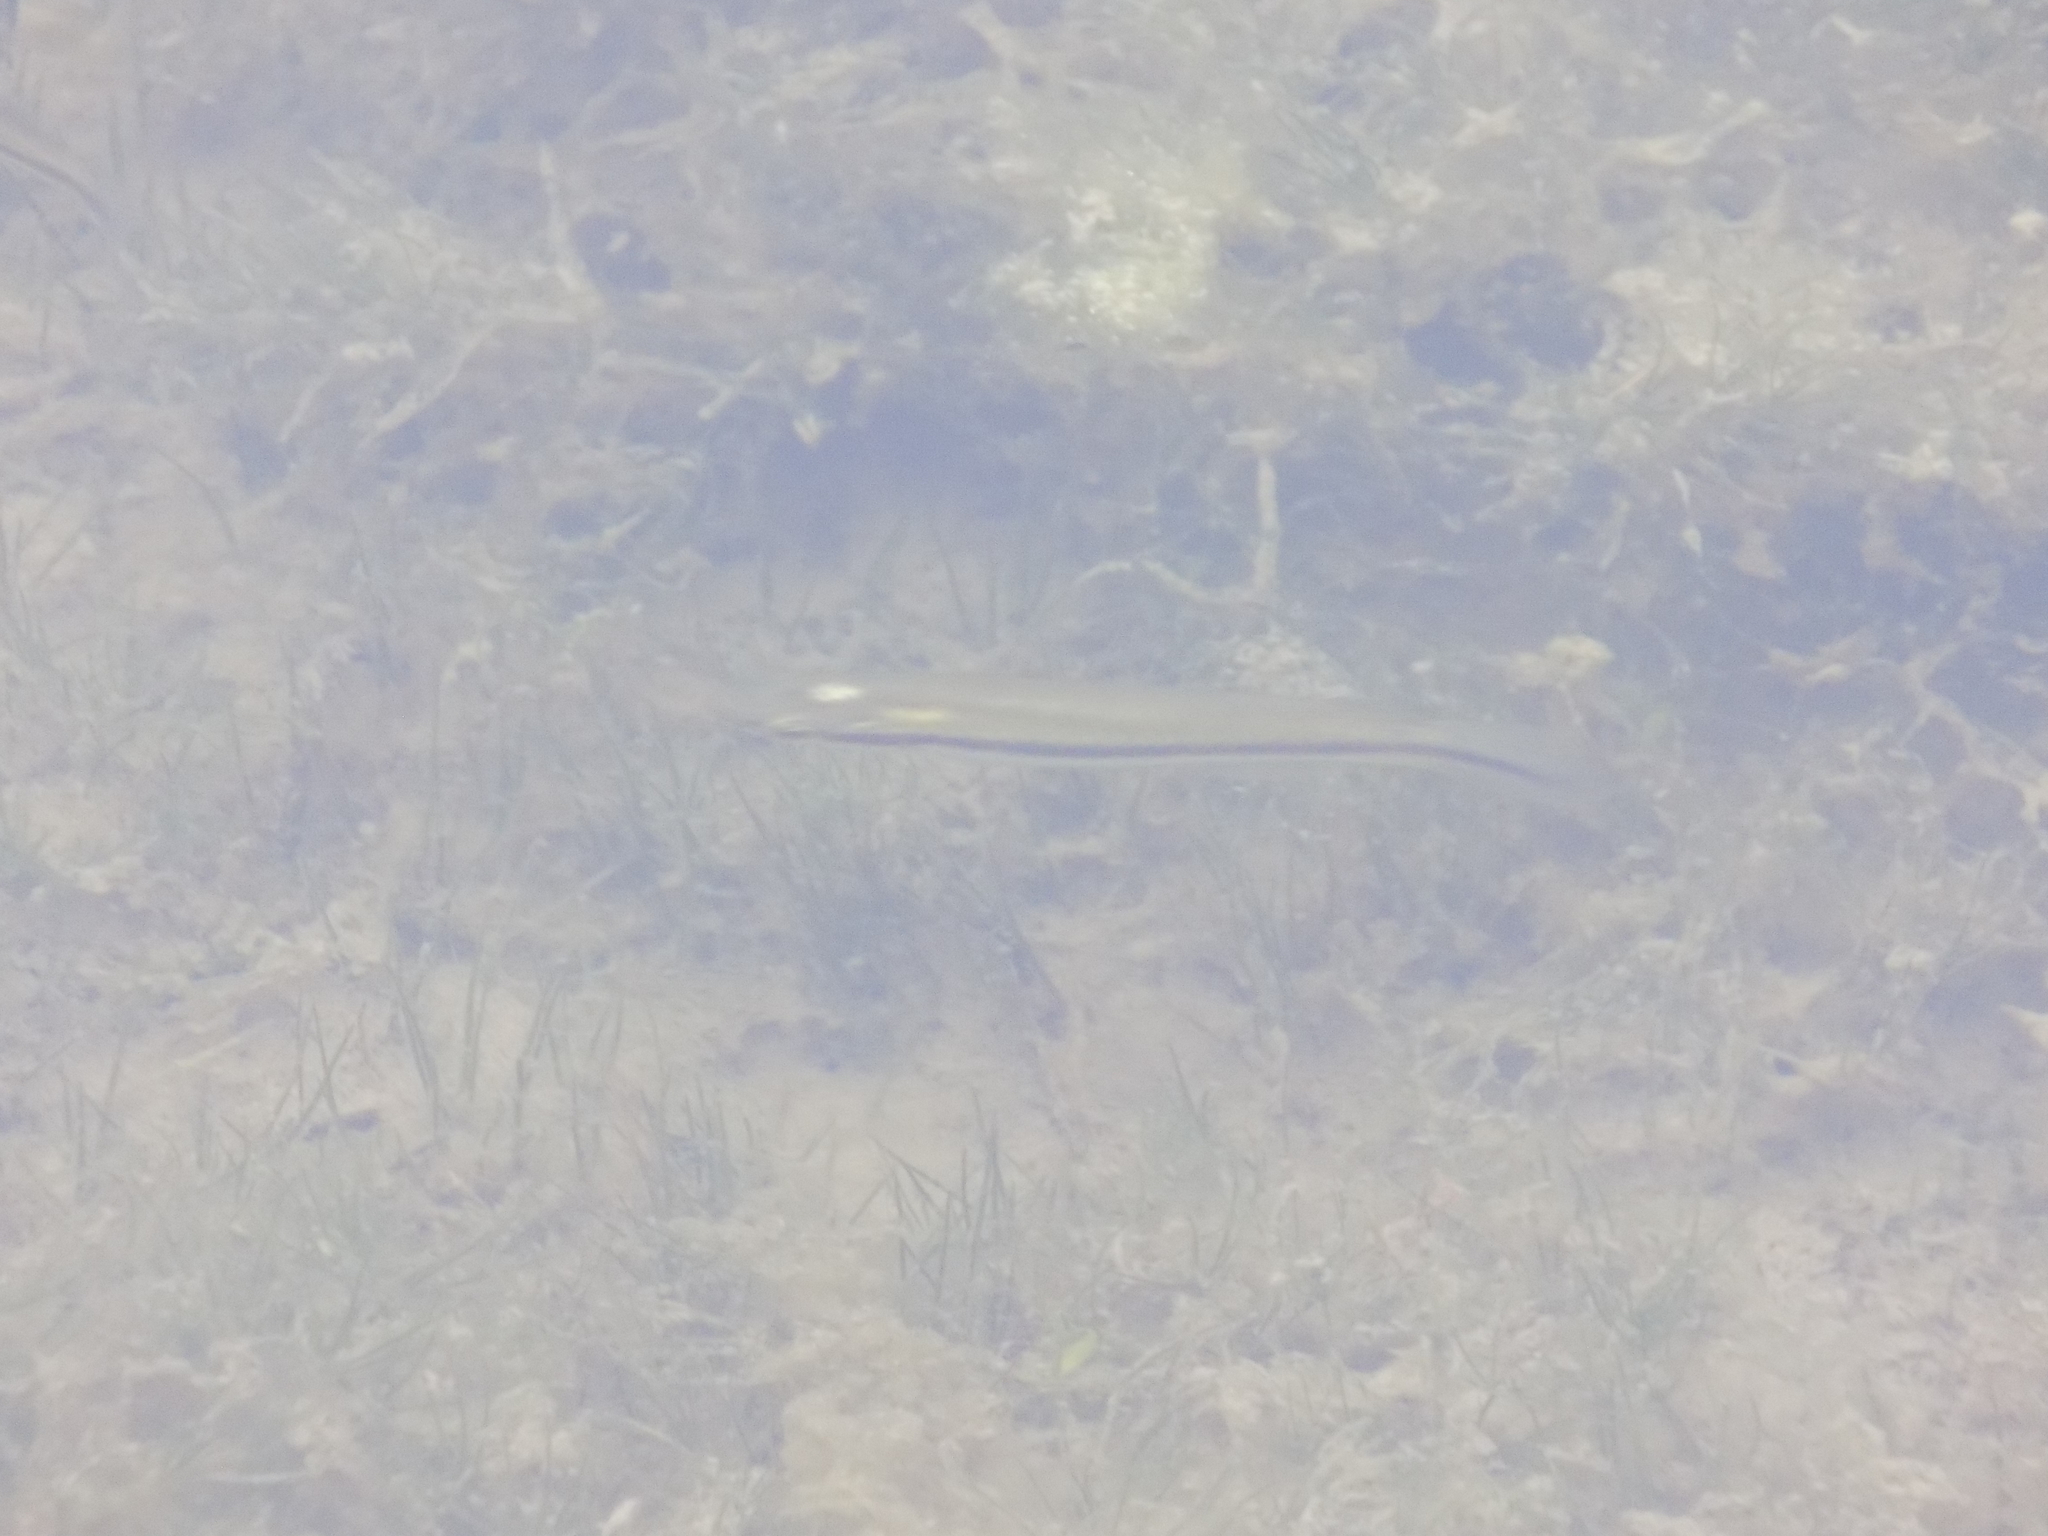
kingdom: Animalia
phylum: Chordata
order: Cyprinodontiformes
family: Fundulidae
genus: Fundulus
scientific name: Fundulus notatus
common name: Blackstripe topminnow
